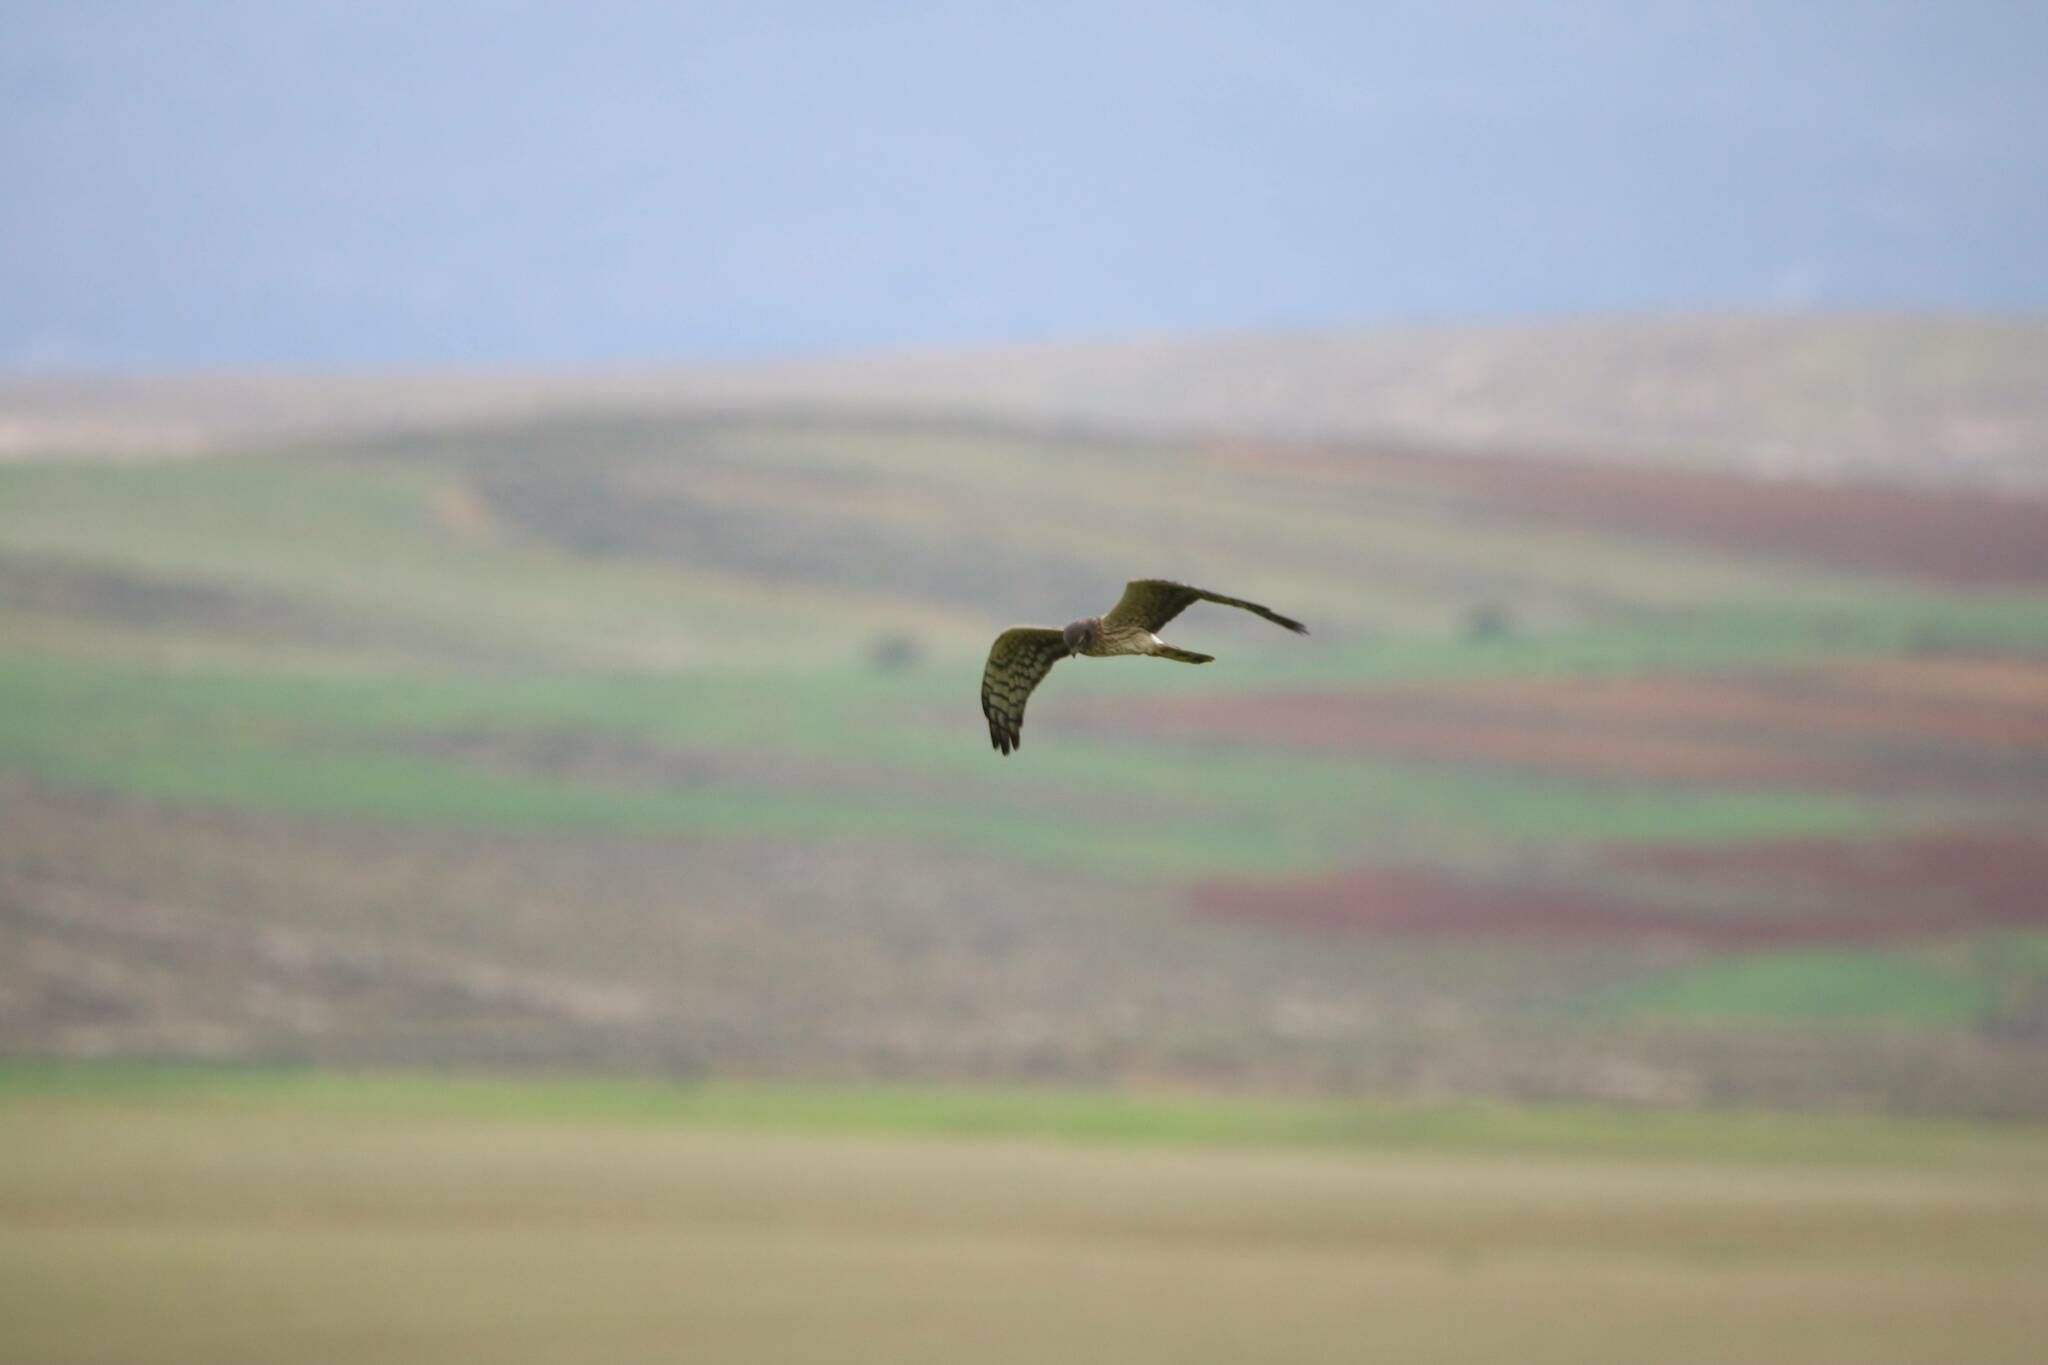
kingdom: Animalia
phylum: Chordata
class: Aves
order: Accipitriformes
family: Accipitridae
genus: Circus
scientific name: Circus pygargus
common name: Montagu's harrier
